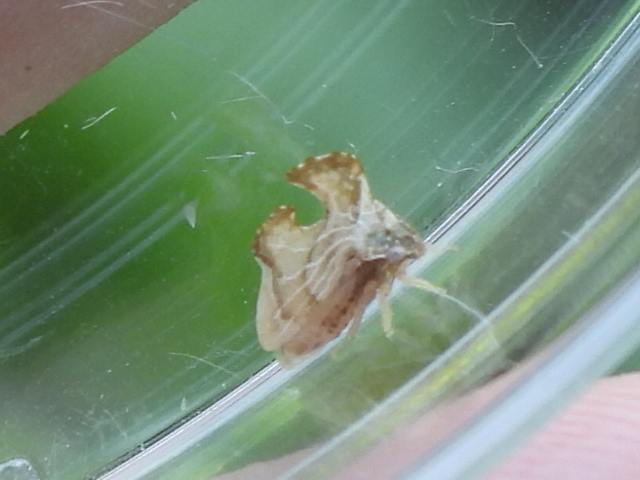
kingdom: Animalia
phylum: Arthropoda
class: Insecta
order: Hemiptera
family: Membracidae
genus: Entylia
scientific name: Entylia carinata
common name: Keeled treehopper
